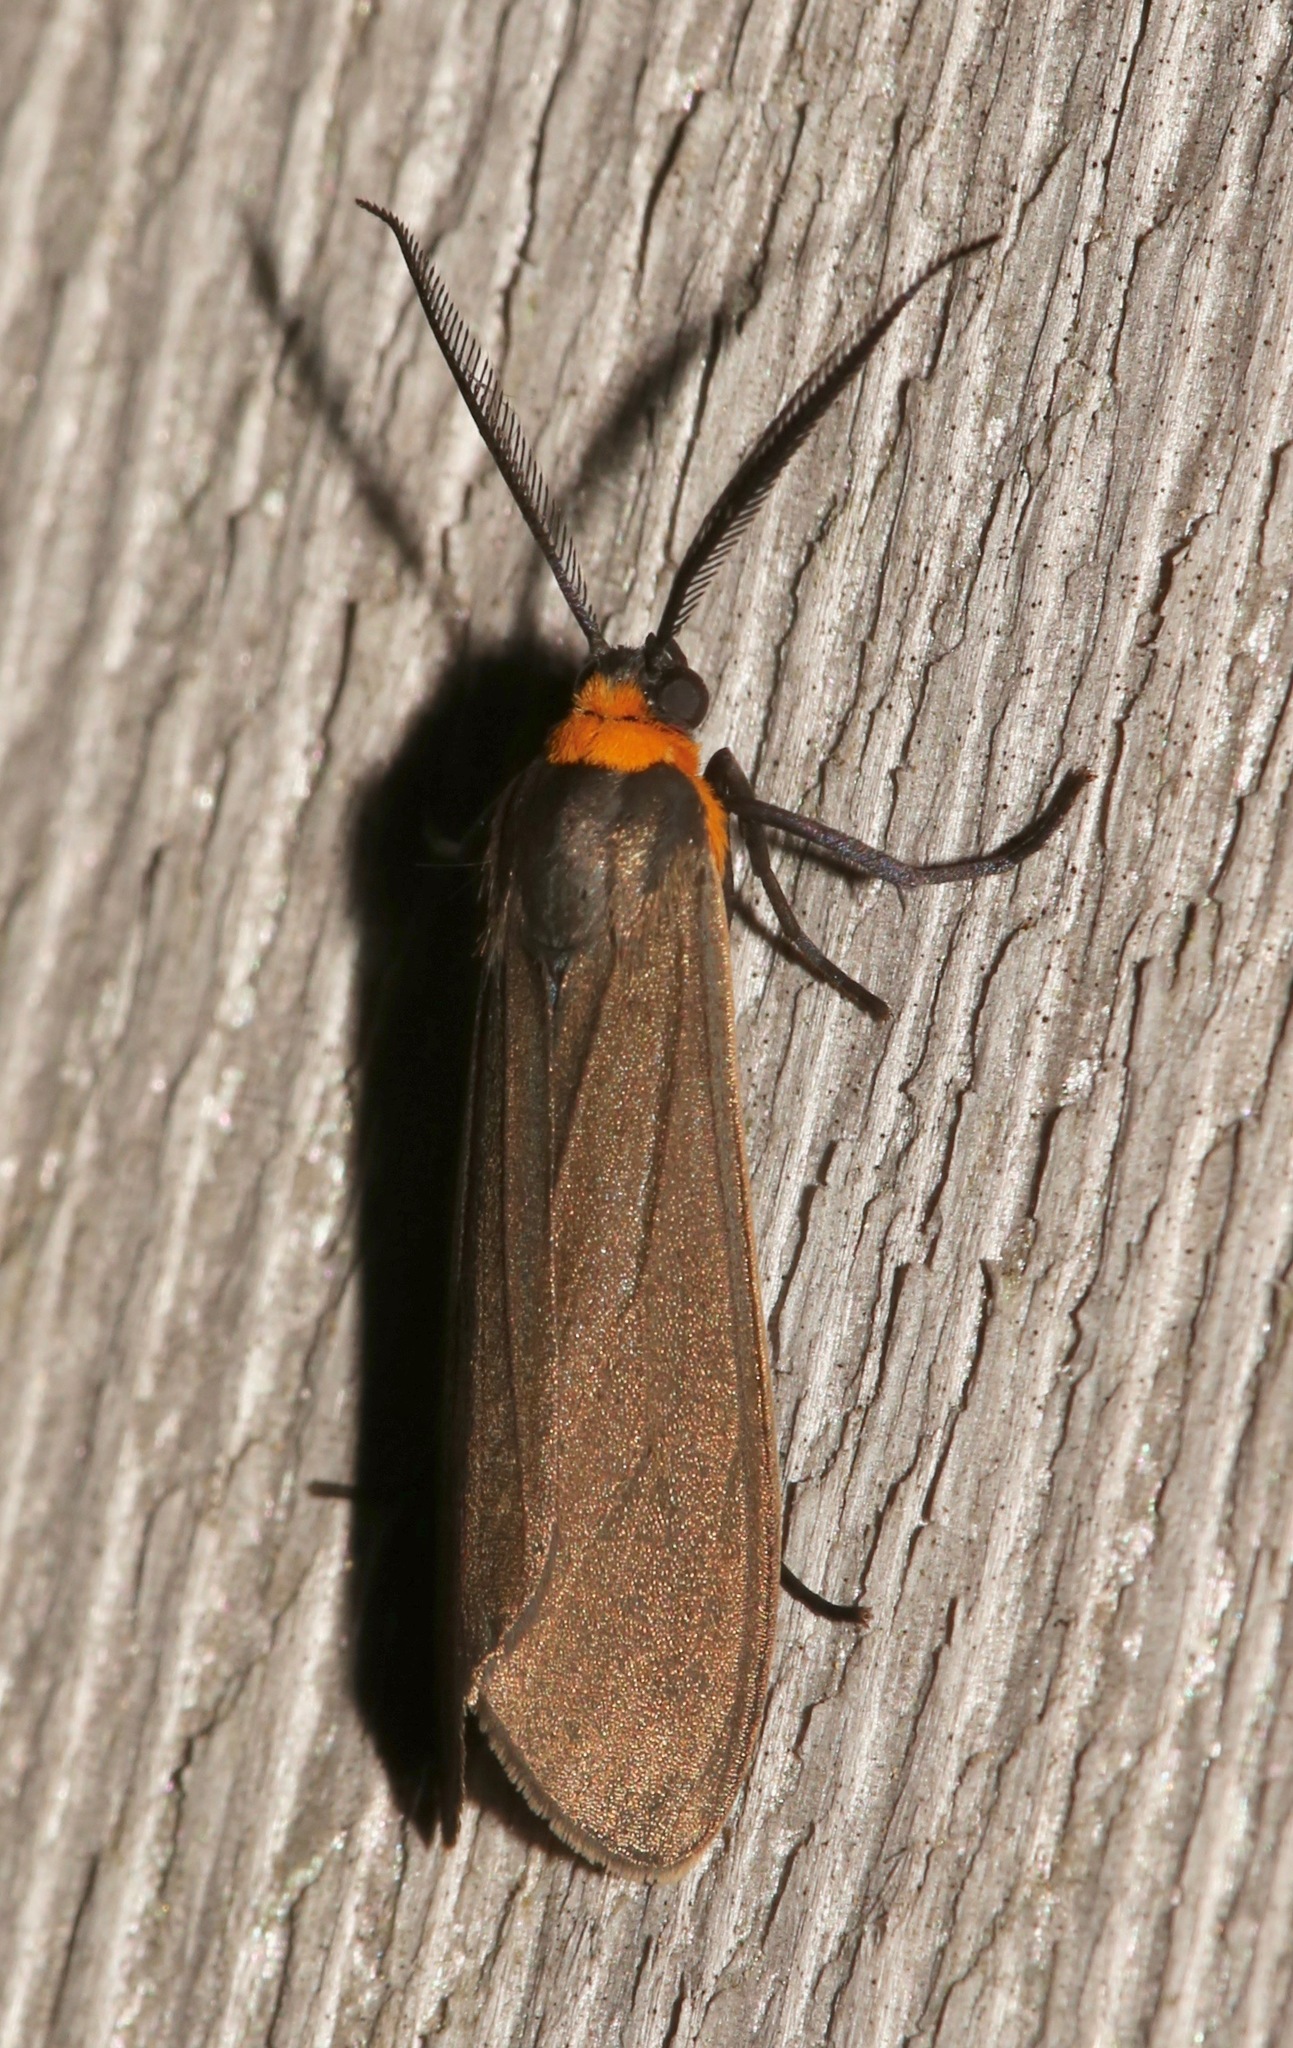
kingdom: Animalia
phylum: Arthropoda
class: Insecta
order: Lepidoptera
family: Erebidae
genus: Cisseps
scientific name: Cisseps fulvicollis
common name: Yellow-collared scape moth
